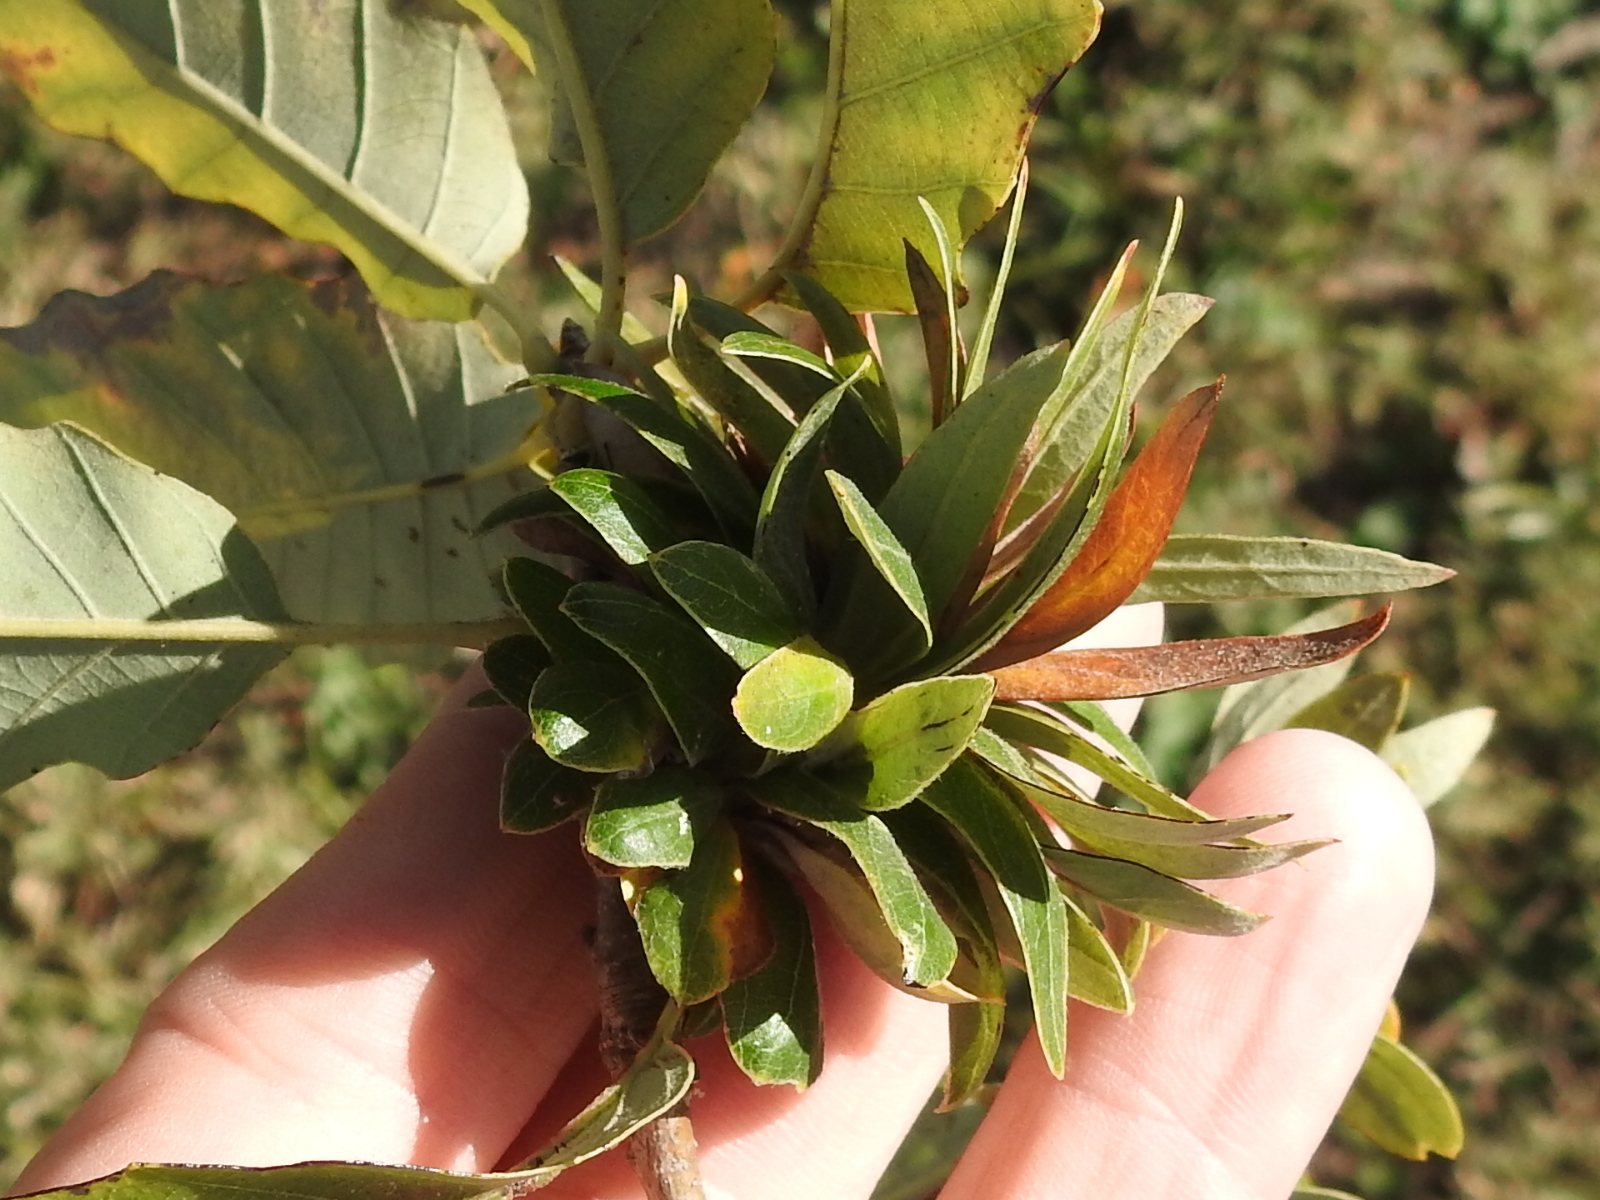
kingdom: Animalia
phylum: Arthropoda
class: Insecta
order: Hymenoptera
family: Cynipidae
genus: Andricus
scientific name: Andricus
